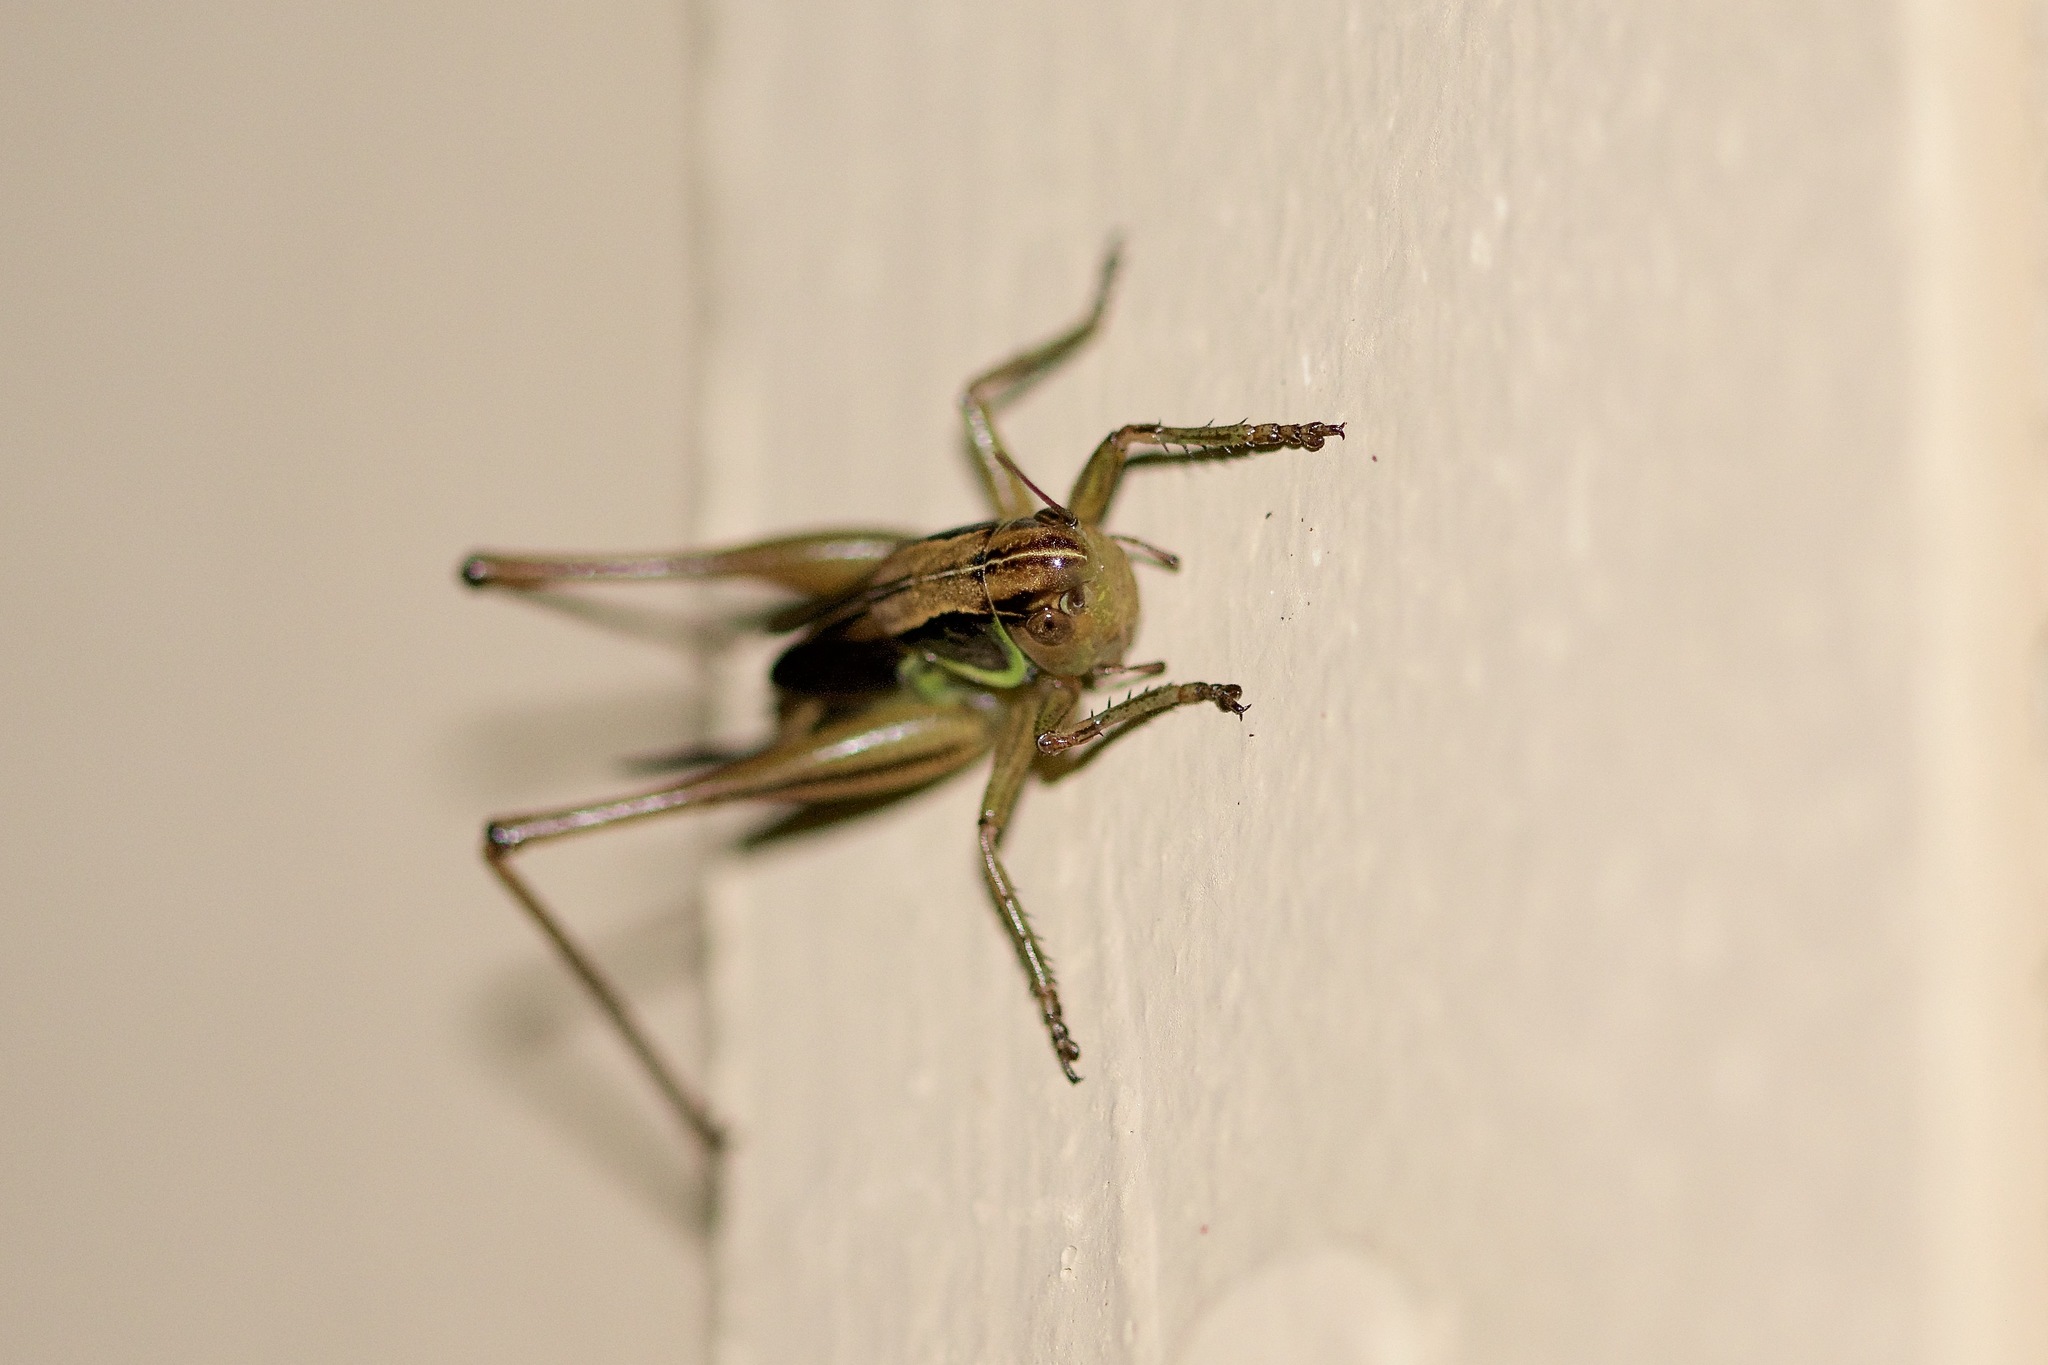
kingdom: Animalia
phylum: Arthropoda
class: Insecta
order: Orthoptera
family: Tettigoniidae
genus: Roeseliana
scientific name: Roeseliana roeselii
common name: Roesel's bush cricket
